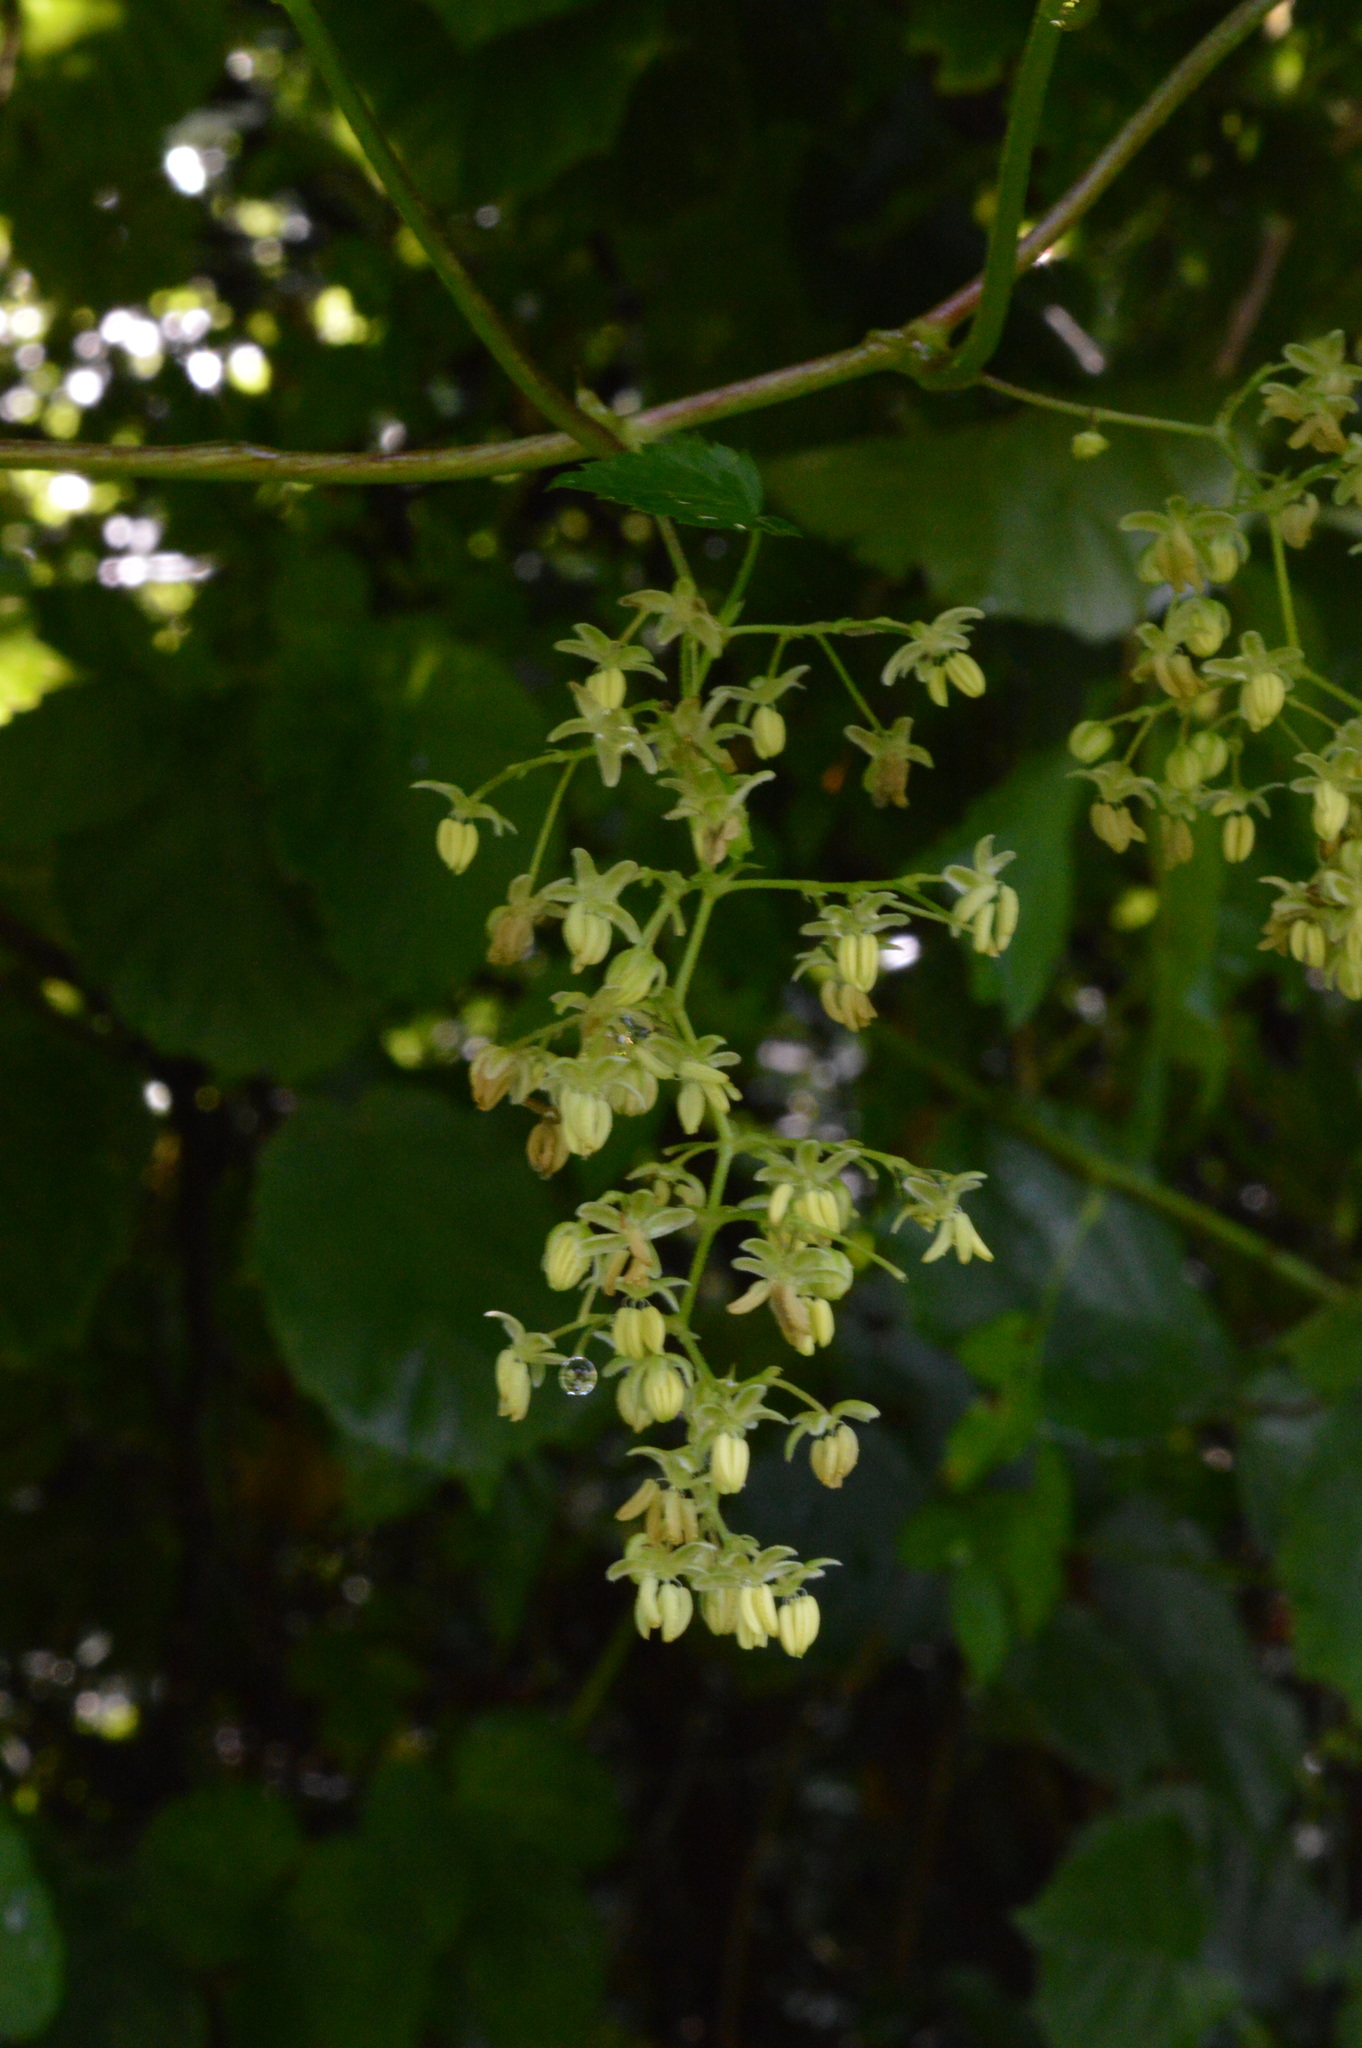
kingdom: Plantae
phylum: Tracheophyta
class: Magnoliopsida
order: Rosales
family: Cannabaceae
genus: Humulus
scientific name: Humulus lupulus
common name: Hop
